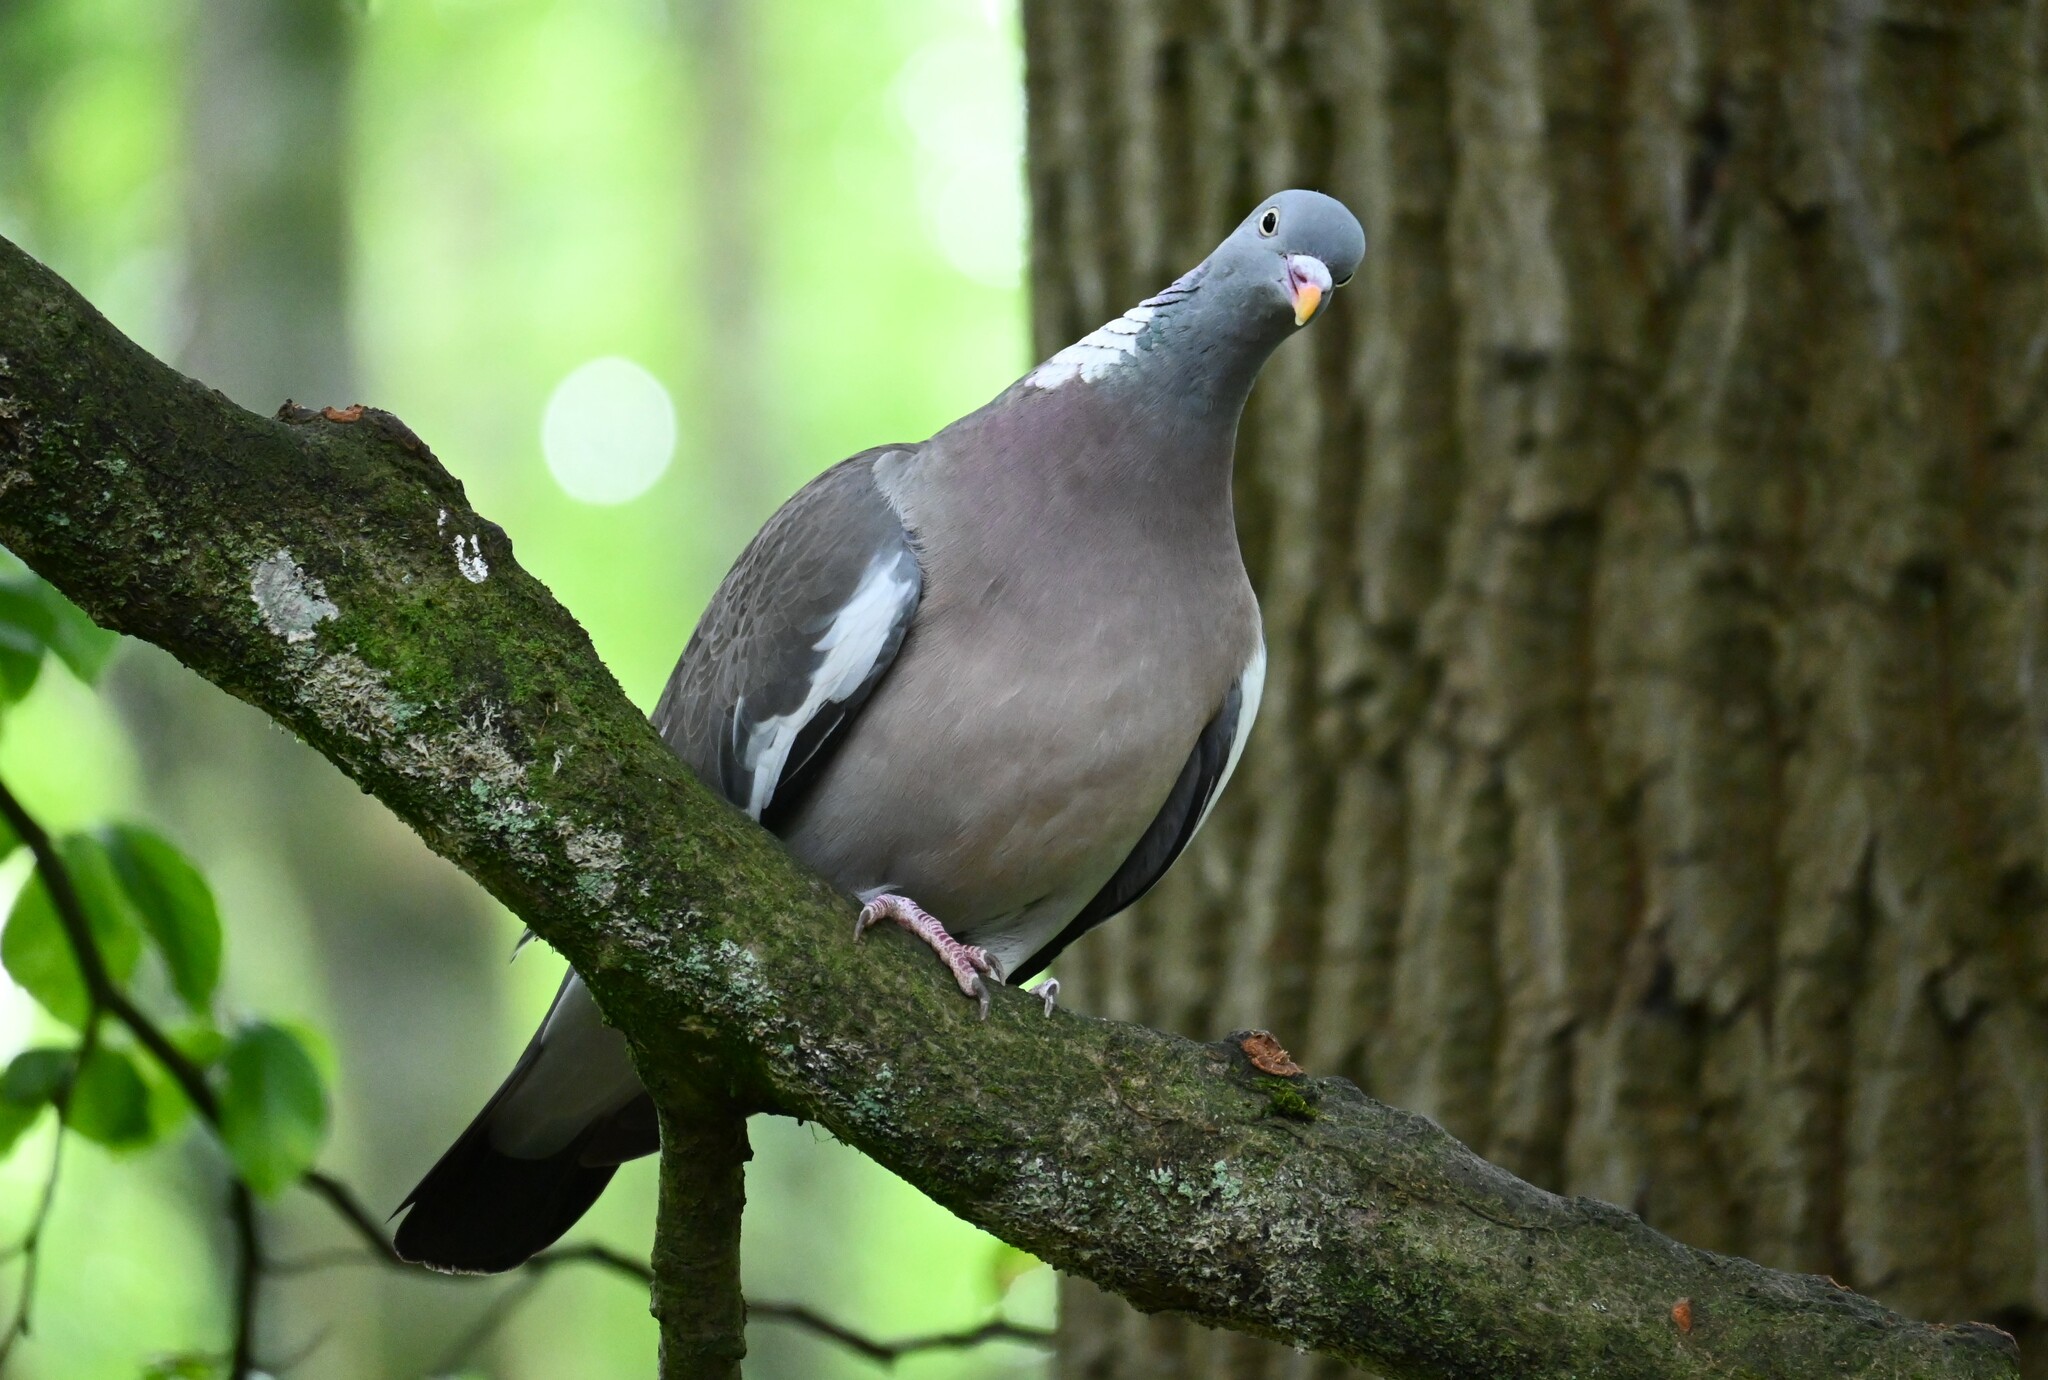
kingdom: Animalia
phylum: Chordata
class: Aves
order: Columbiformes
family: Columbidae
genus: Columba
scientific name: Columba palumbus
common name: Common wood pigeon
